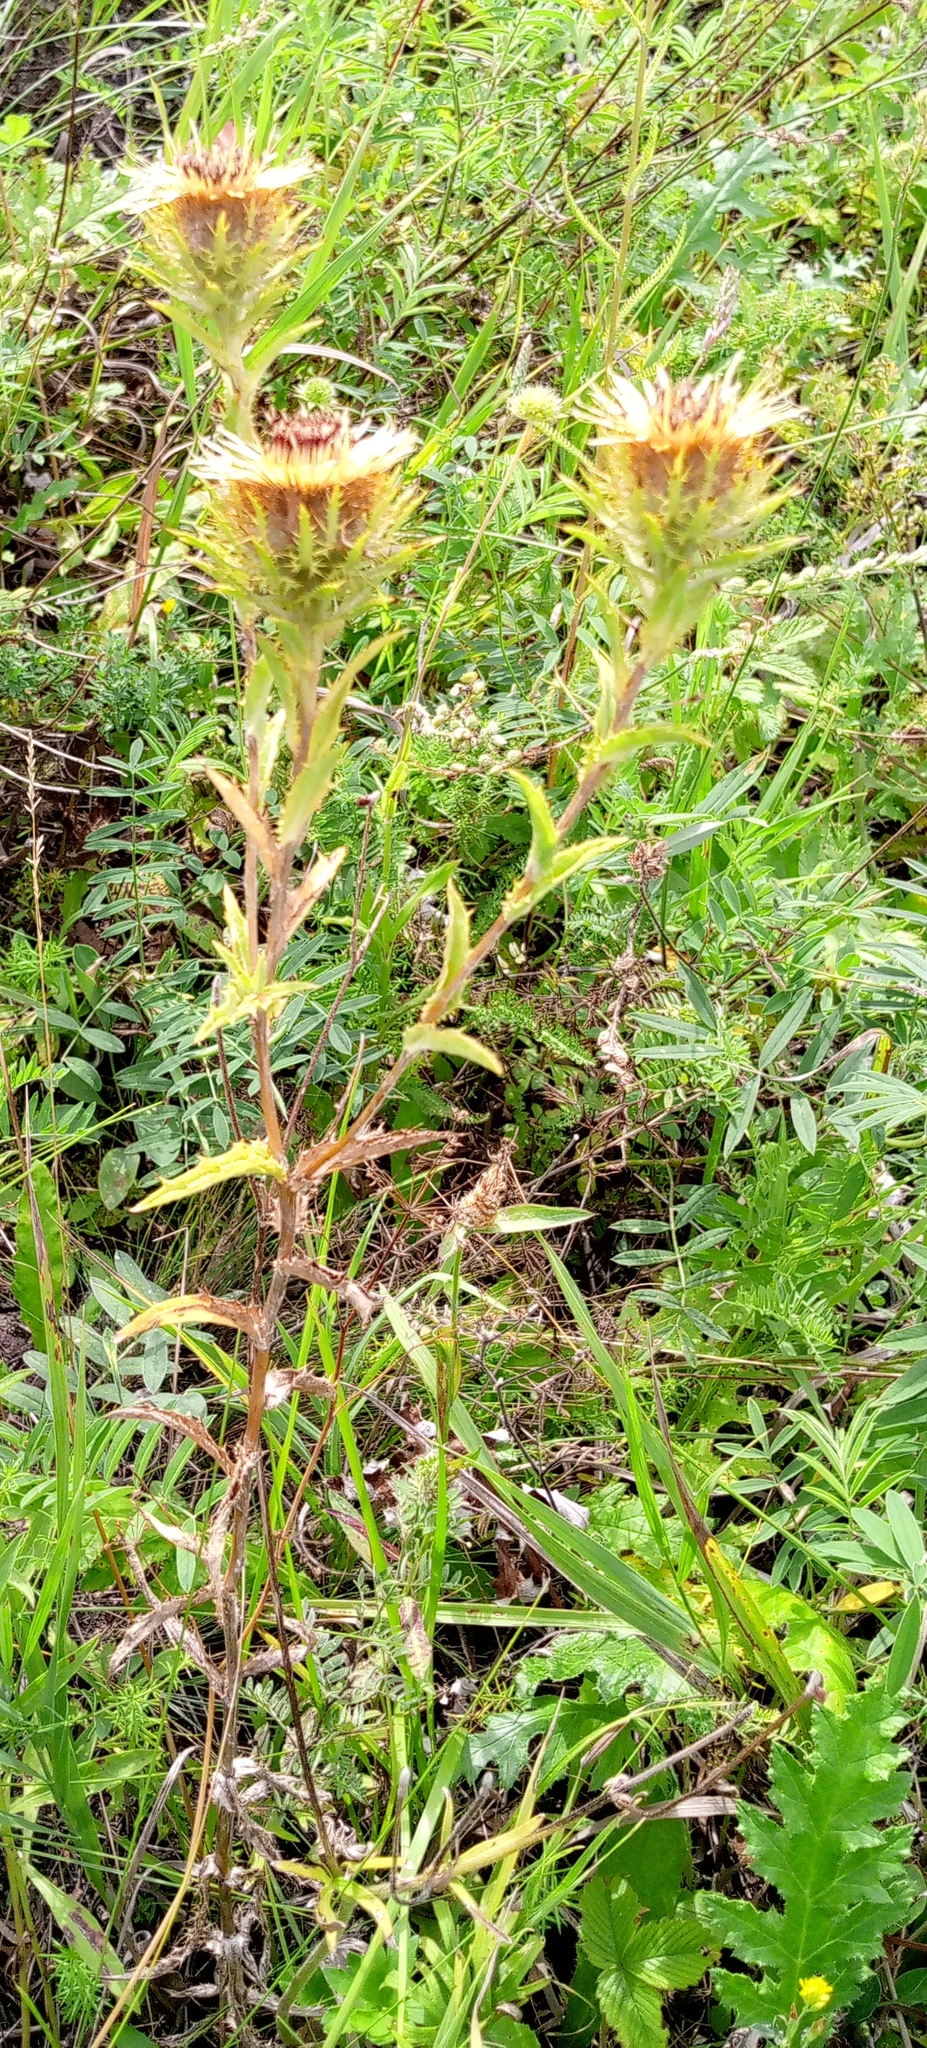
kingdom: Plantae
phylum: Tracheophyta
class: Magnoliopsida
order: Asterales
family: Asteraceae
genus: Carlina
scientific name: Carlina biebersteinii
